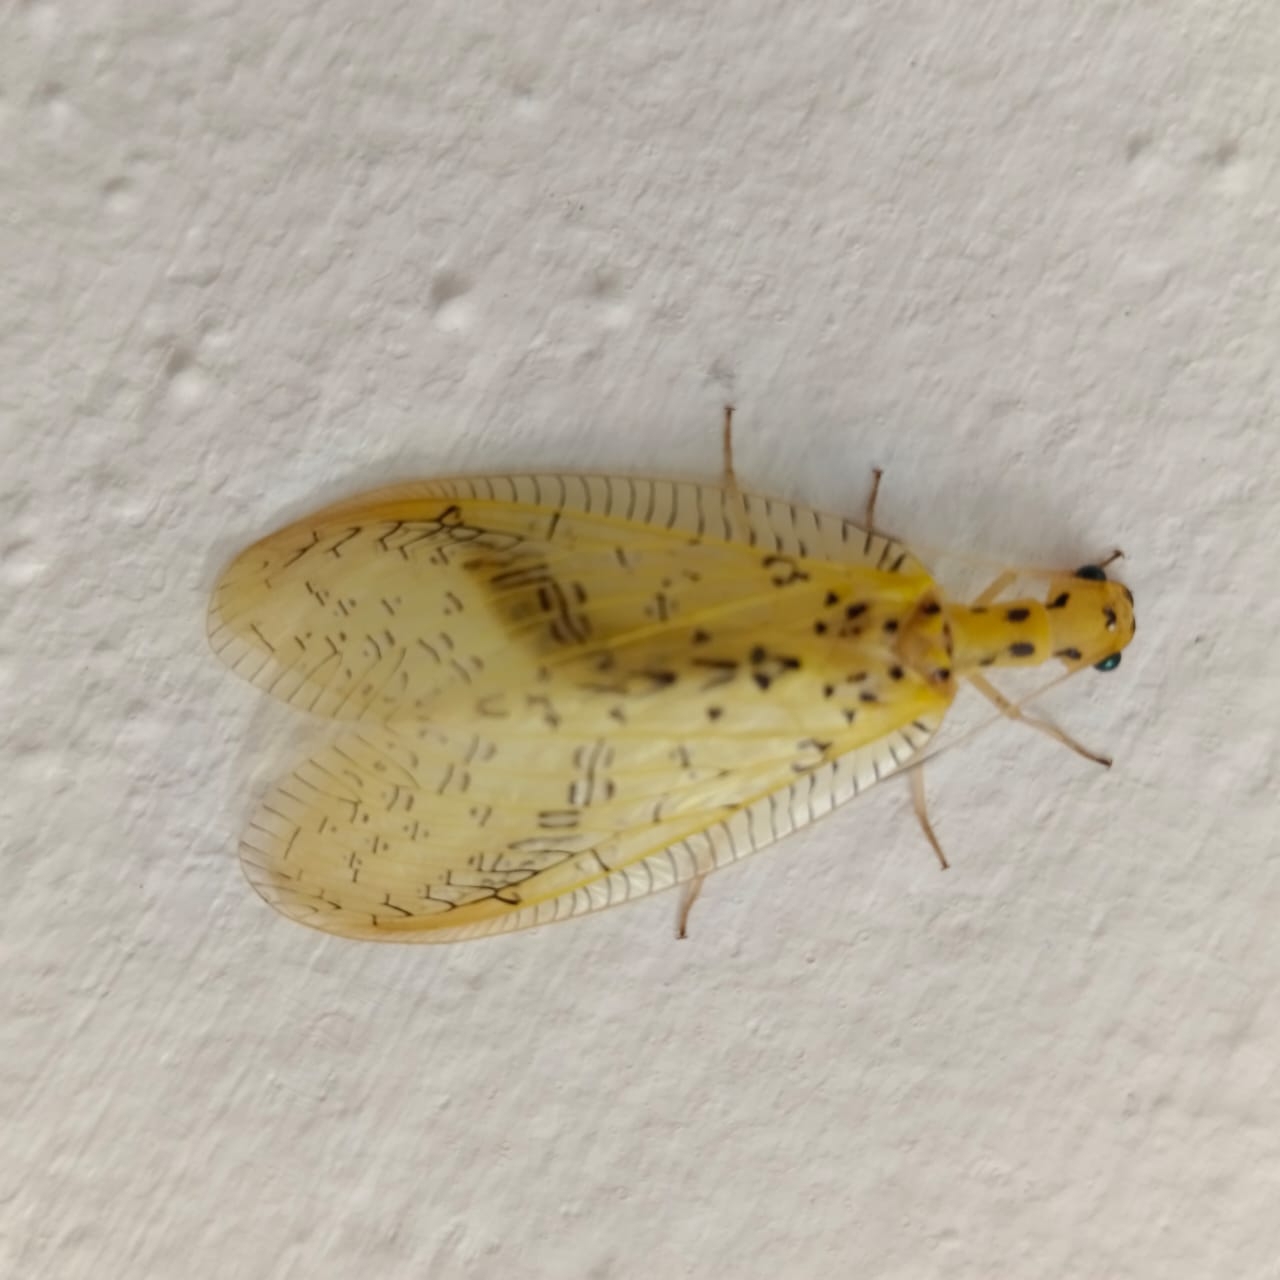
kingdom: Animalia
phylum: Arthropoda
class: Insecta
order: Megaloptera
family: Corydalidae
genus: Chloronia
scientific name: Chloronia mirifica
